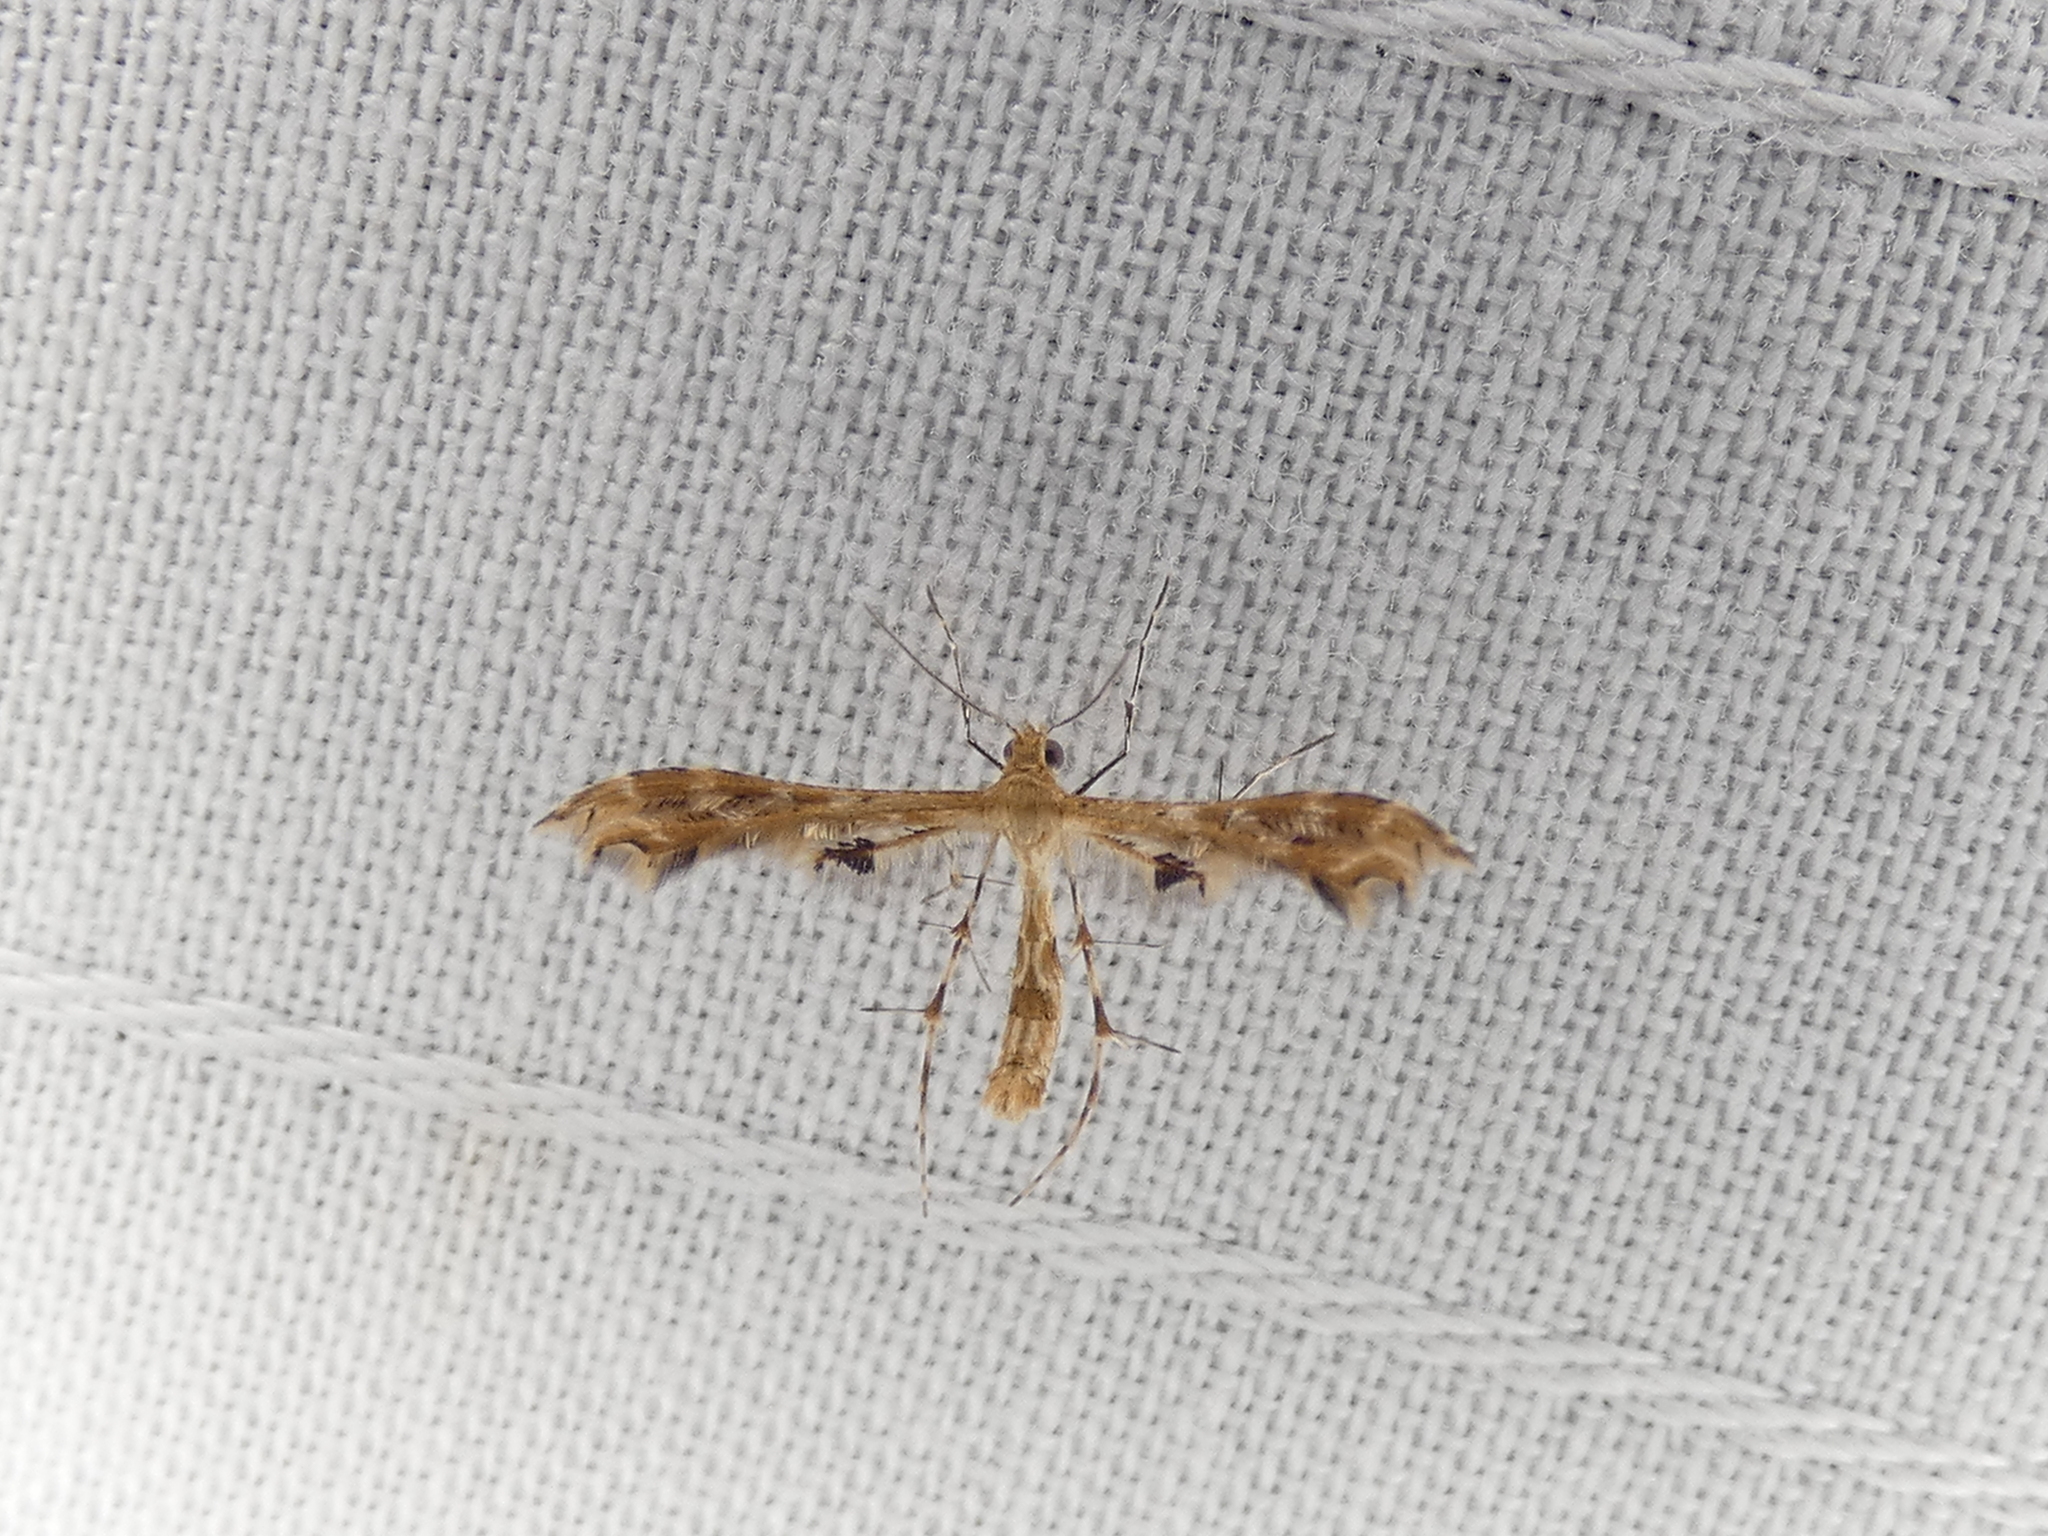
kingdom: Animalia
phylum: Arthropoda
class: Insecta
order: Lepidoptera
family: Pterophoridae
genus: Sphenarches
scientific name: Sphenarches anisodactylus
